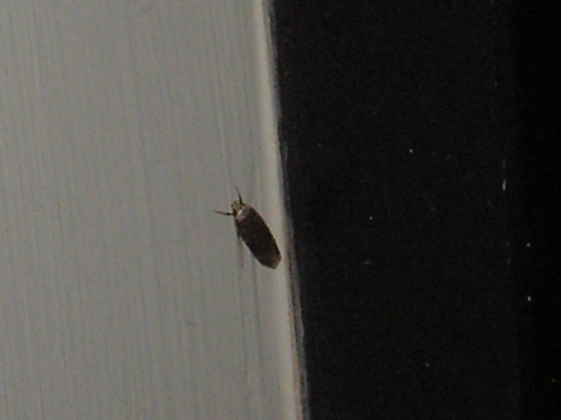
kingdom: Animalia
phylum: Arthropoda
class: Insecta
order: Lepidoptera
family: Oecophoridae
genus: Endrosis
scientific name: Endrosis sarcitrella
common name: White-shouldered house moth
